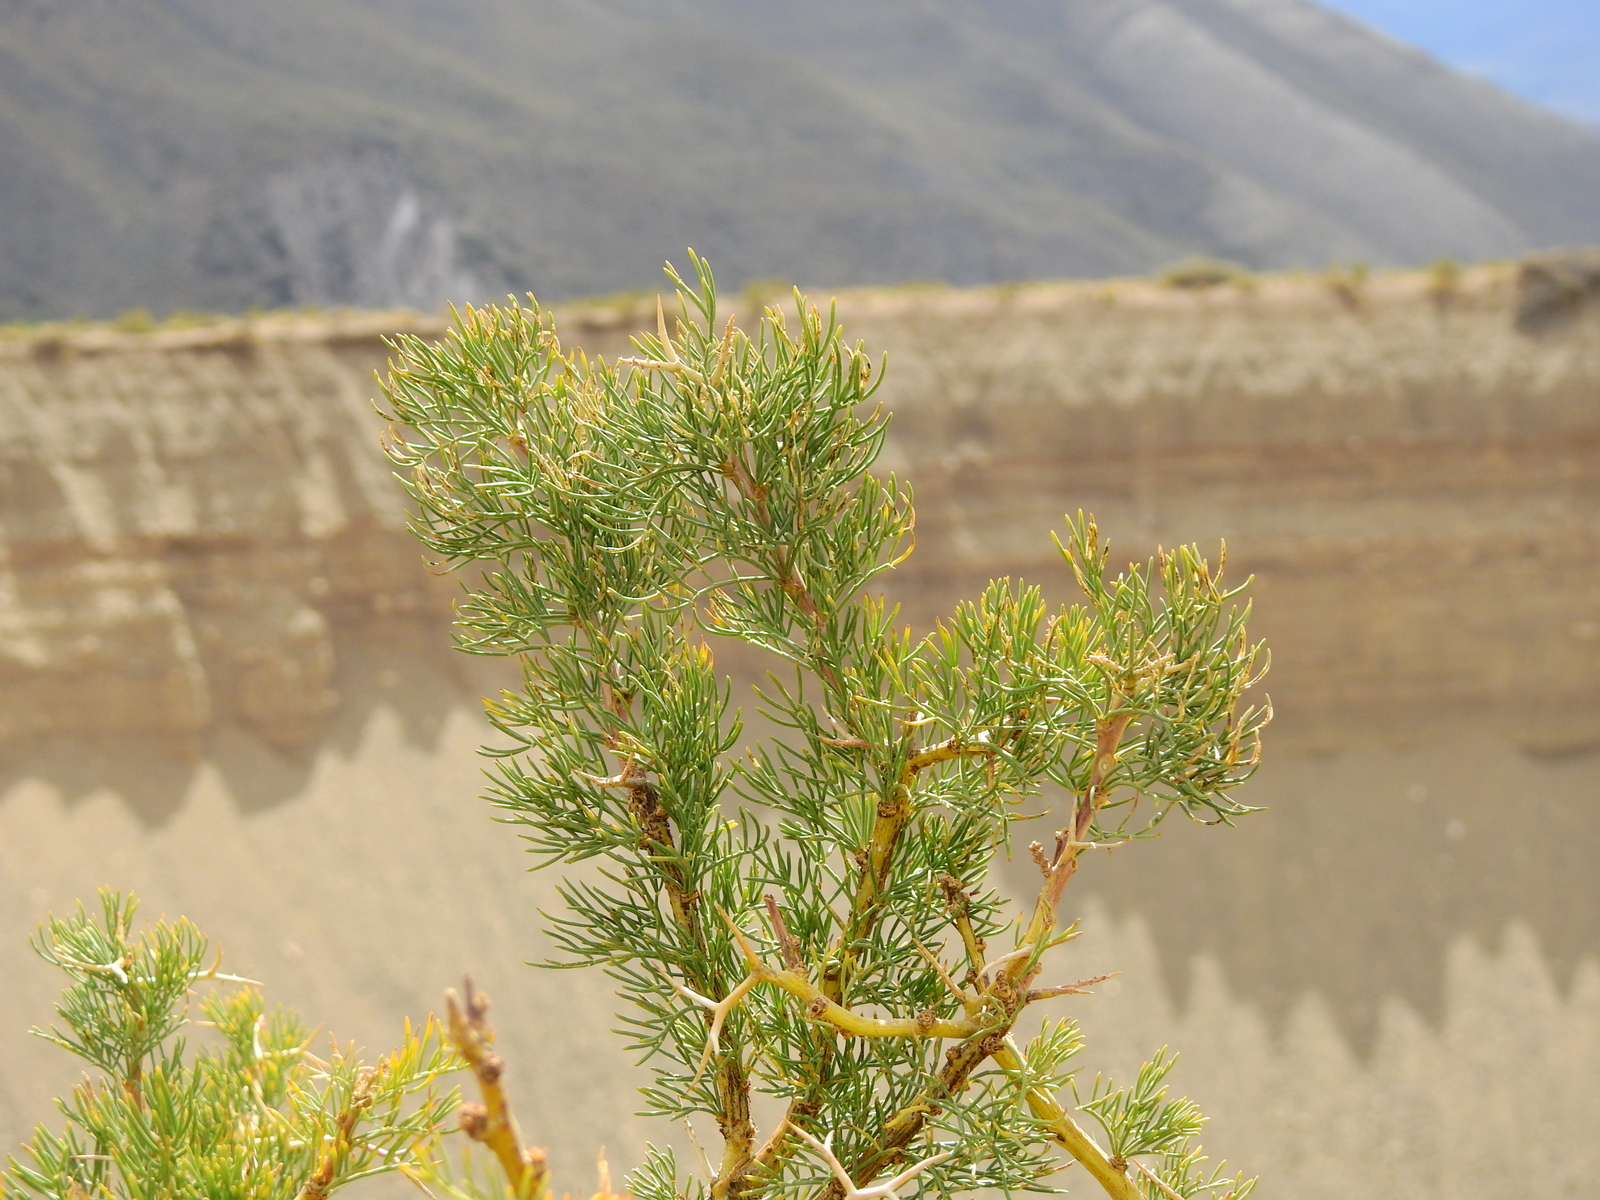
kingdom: Plantae
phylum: Tracheophyta
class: Magnoliopsida
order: Fabales
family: Fabaceae
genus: Adesmia
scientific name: Adesmia pinifolia
